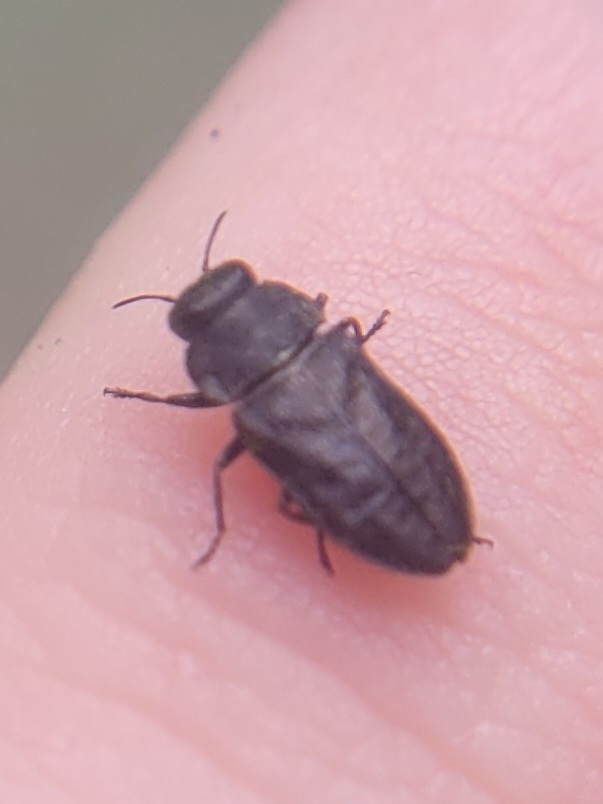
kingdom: Animalia
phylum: Arthropoda
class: Insecta
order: Coleoptera
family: Buprestidae
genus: Anthaxia
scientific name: Anthaxia helvetica
